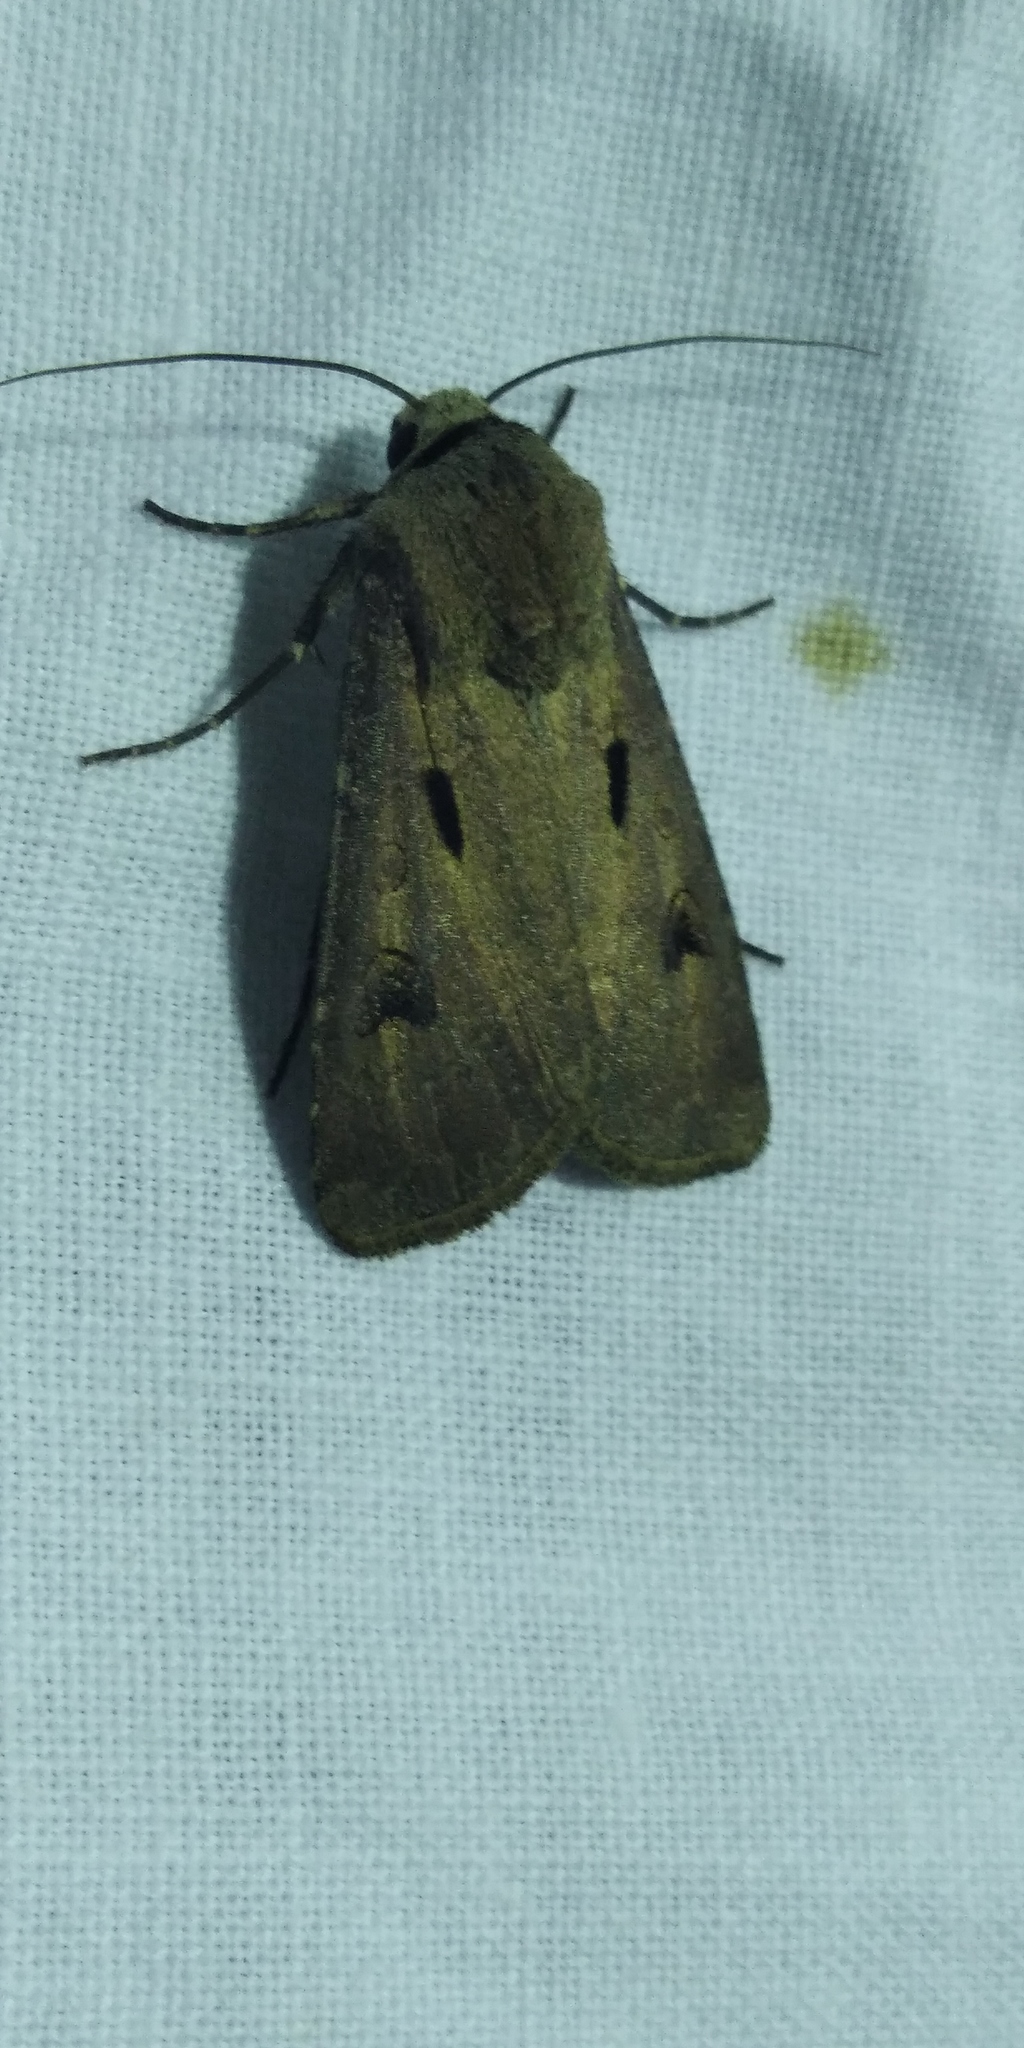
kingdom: Animalia
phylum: Arthropoda
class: Insecta
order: Lepidoptera
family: Noctuidae
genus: Agrotis
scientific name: Agrotis exclamationis
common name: Heart and dart
